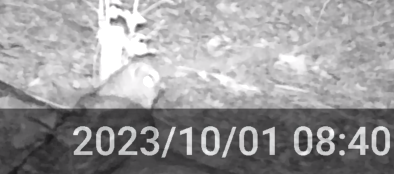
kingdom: Animalia
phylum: Chordata
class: Aves
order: Strigiformes
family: Strigidae
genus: Strix
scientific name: Strix varia
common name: Barred owl
